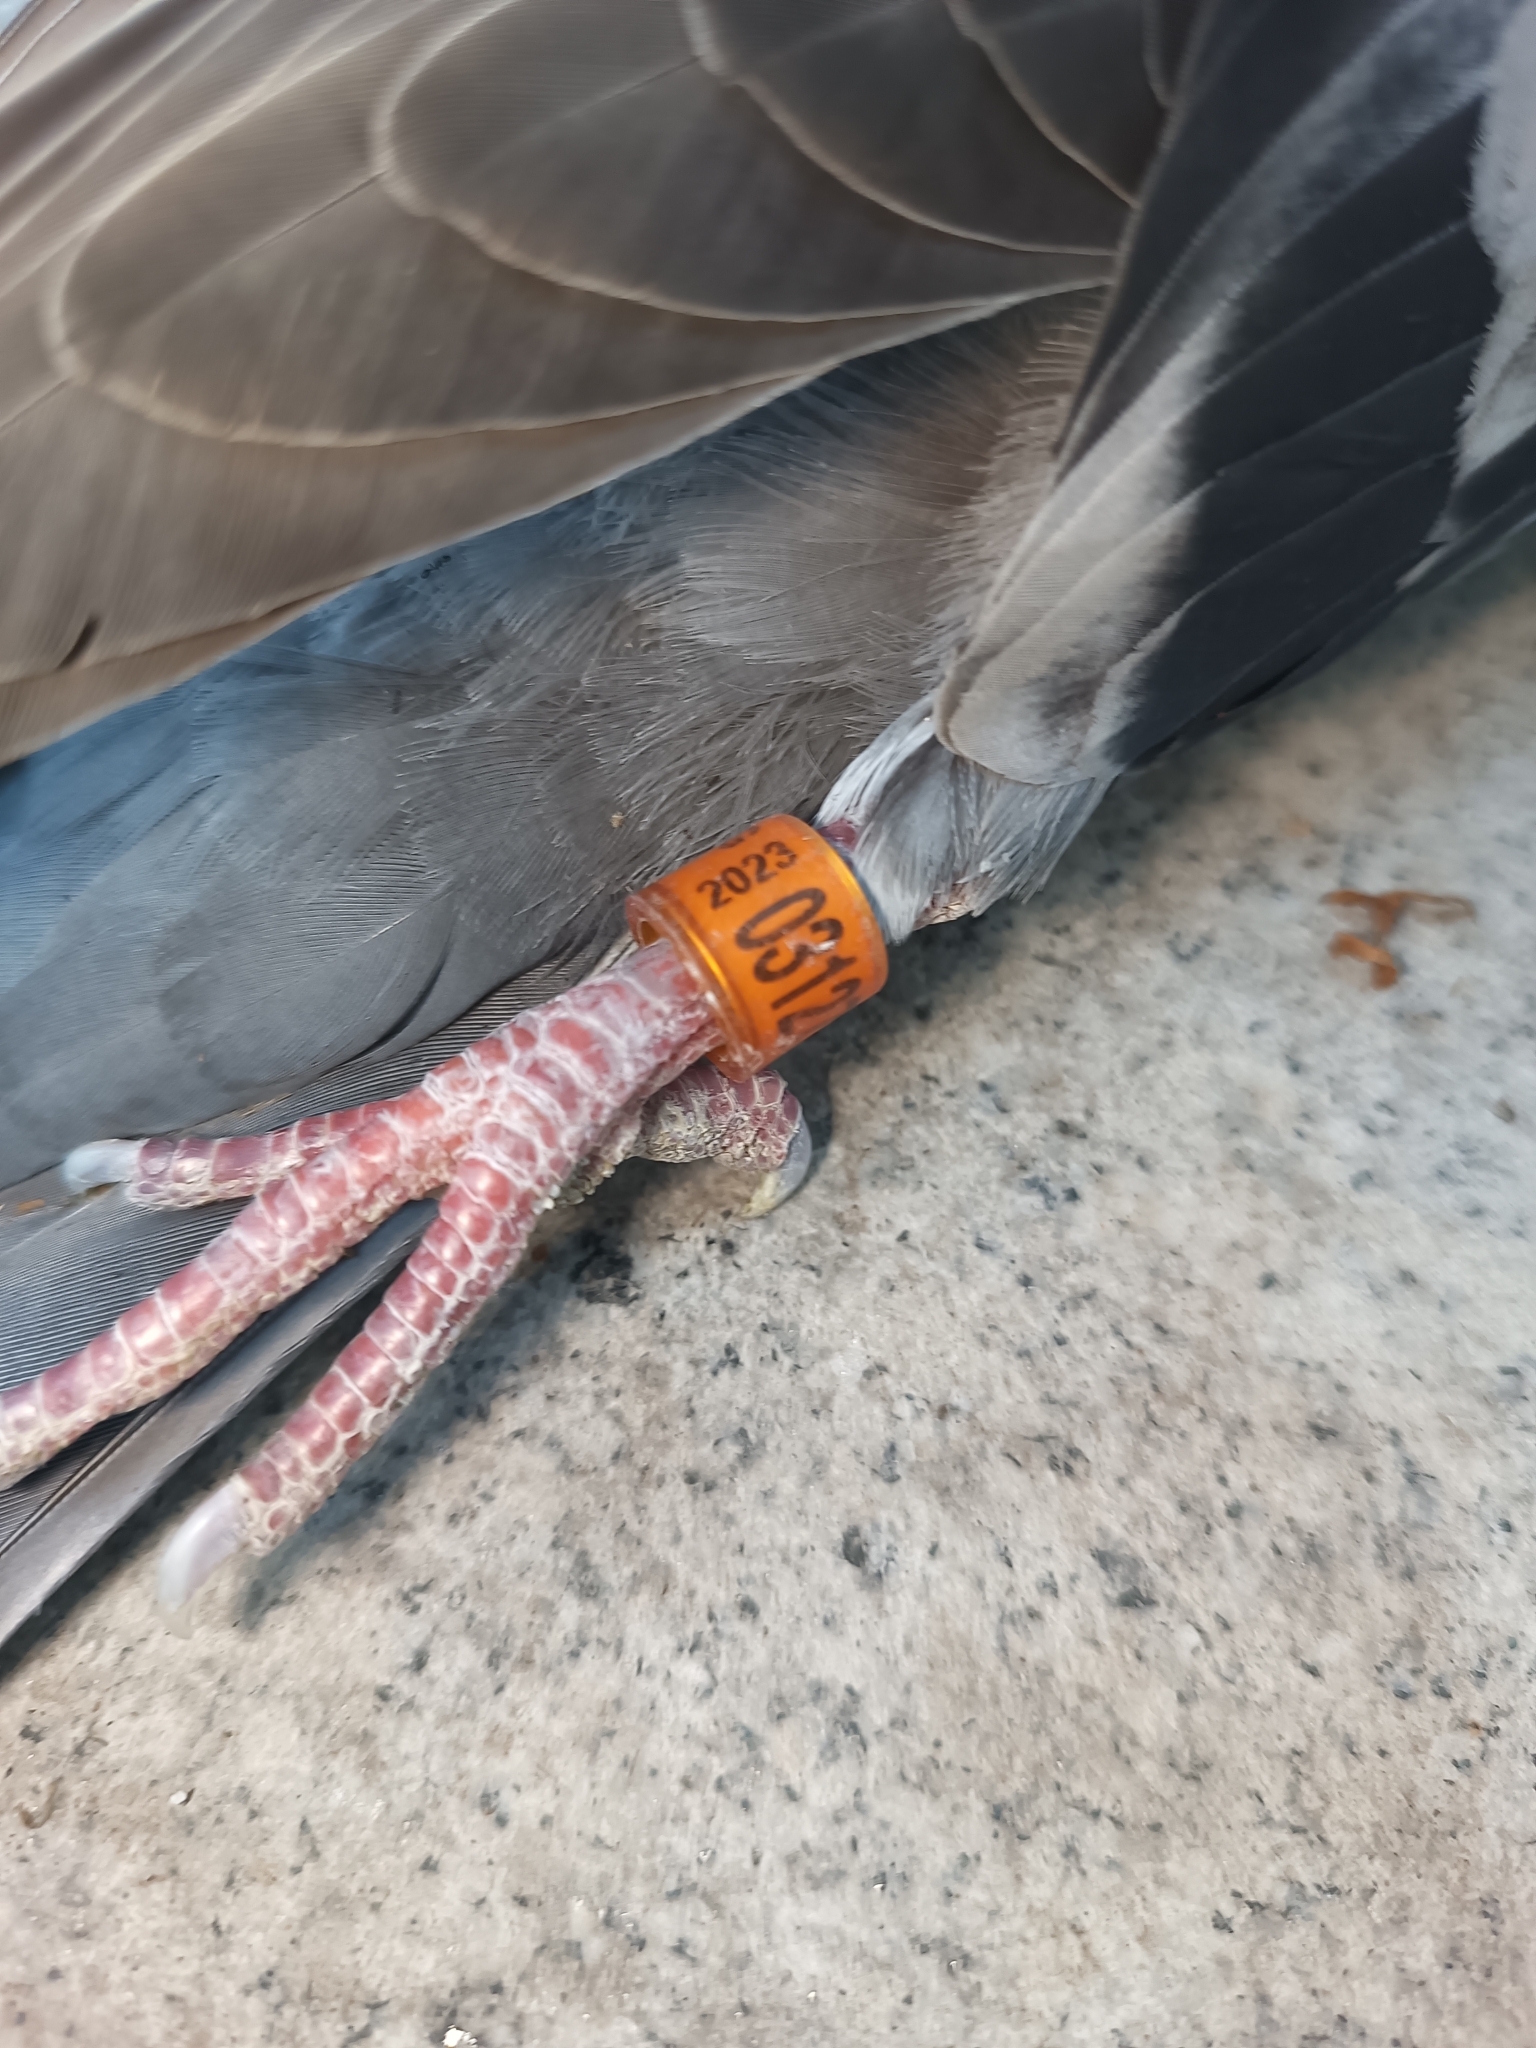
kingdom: Animalia
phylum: Chordata
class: Aves
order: Columbiformes
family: Columbidae
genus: Columba
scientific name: Columba livia
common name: Rock pigeon
